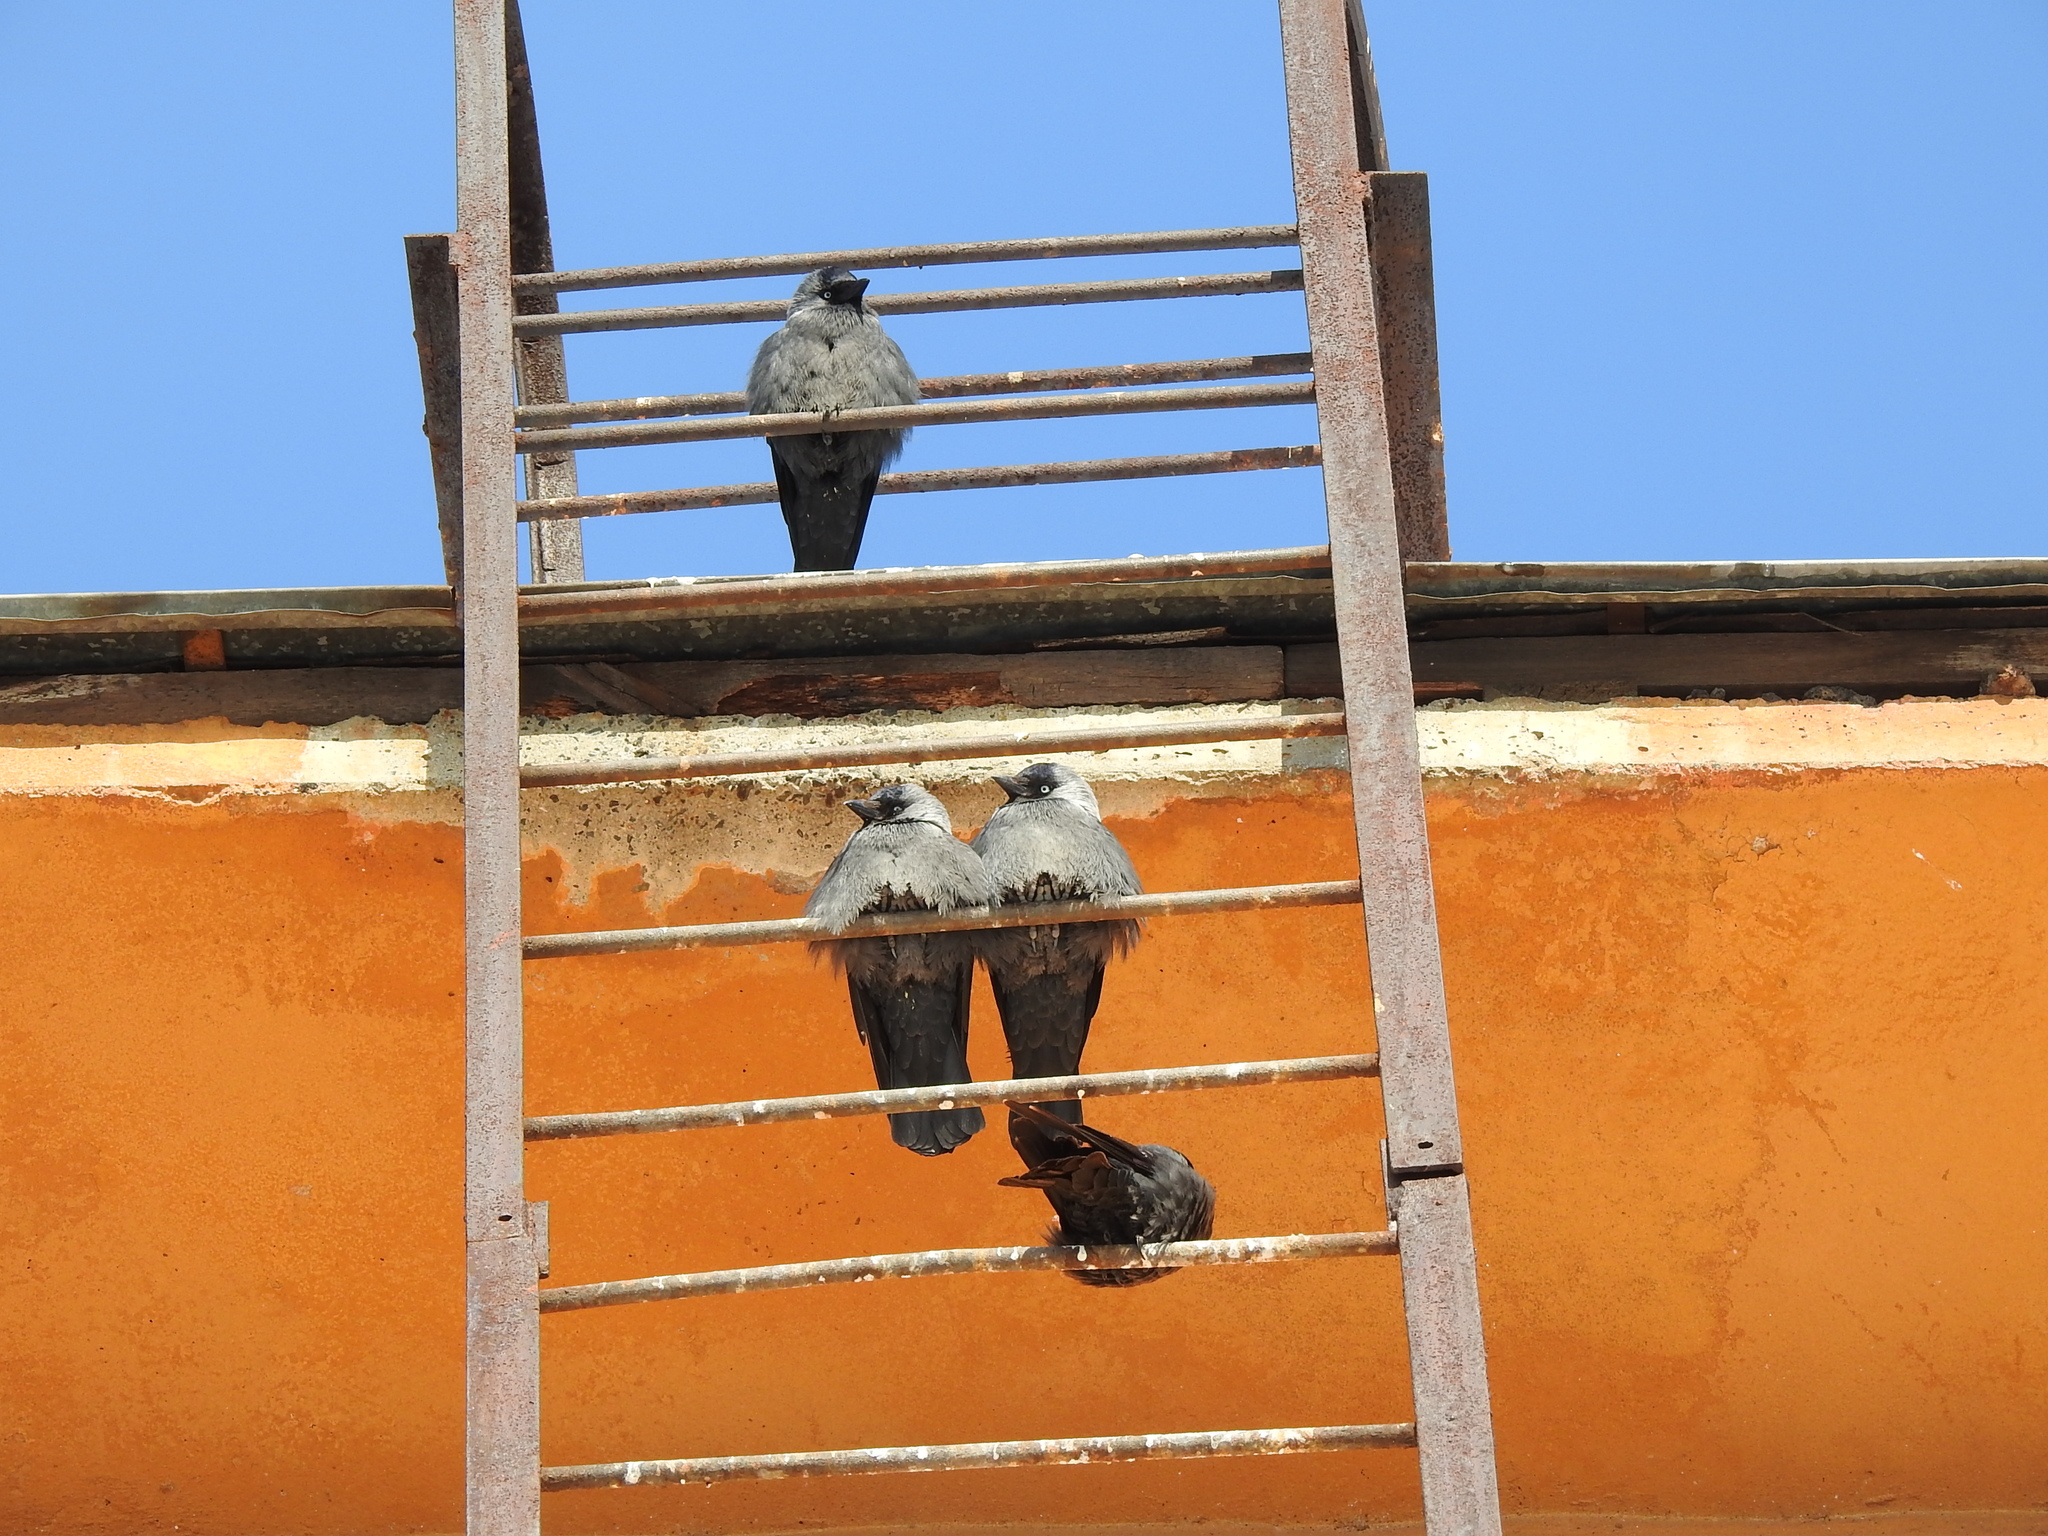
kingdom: Animalia
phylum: Chordata
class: Aves
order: Passeriformes
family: Corvidae
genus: Coloeus
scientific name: Coloeus monedula
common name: Western jackdaw
